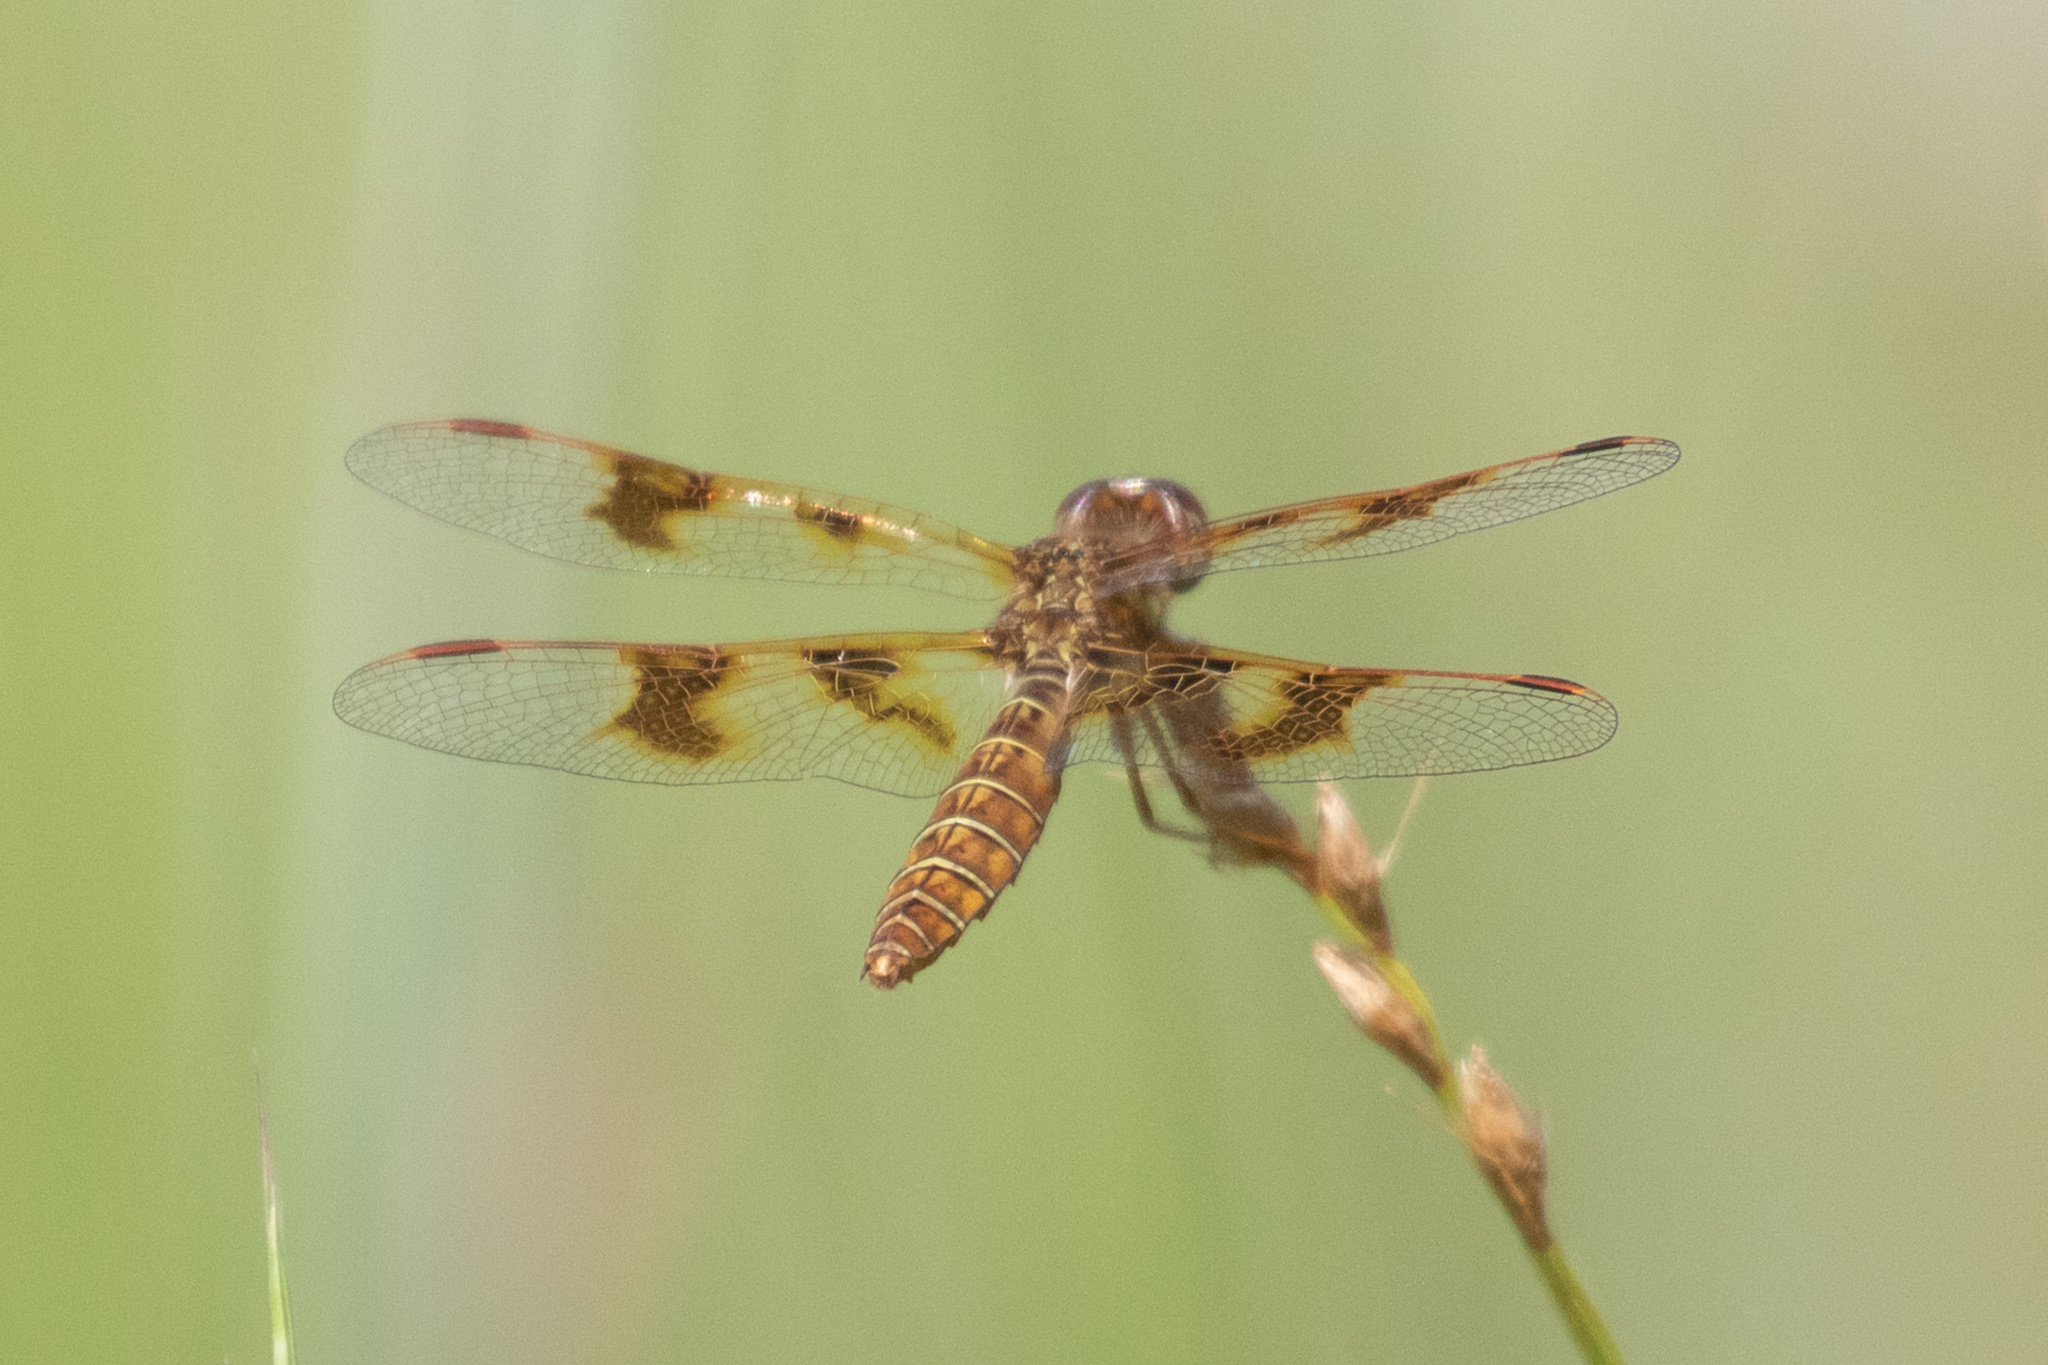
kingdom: Animalia
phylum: Arthropoda
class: Insecta
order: Odonata
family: Libellulidae
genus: Perithemis
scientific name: Perithemis tenera
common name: Eastern amberwing
